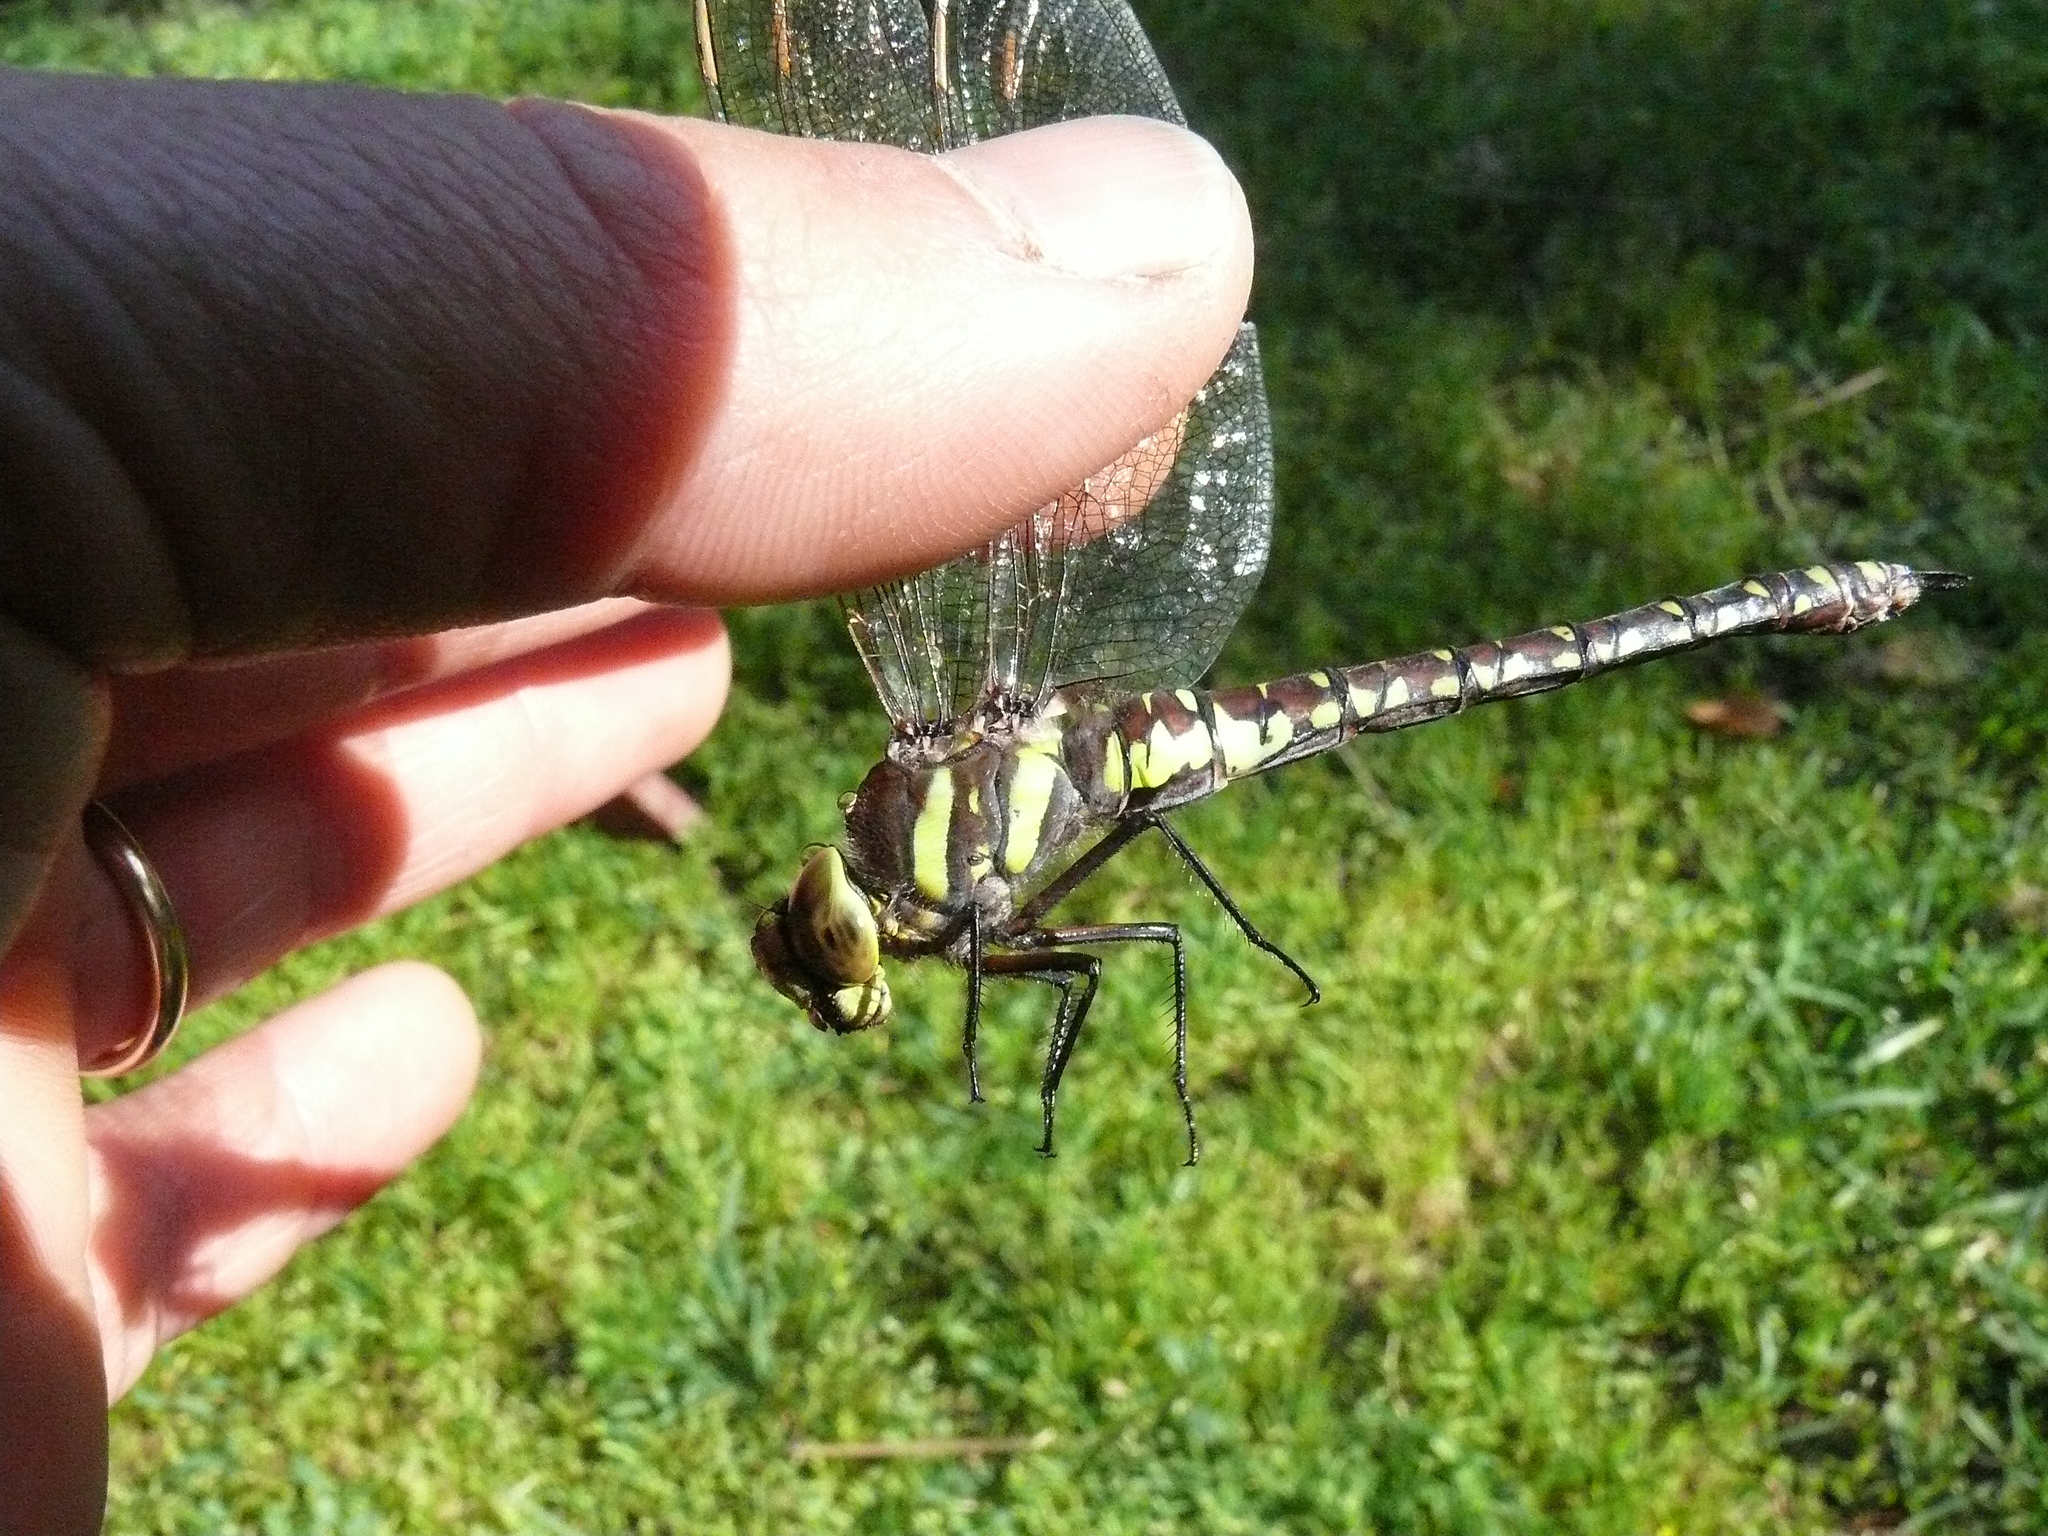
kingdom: Animalia
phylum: Arthropoda
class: Insecta
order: Odonata
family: Aeshnidae
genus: Aeshna
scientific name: Aeshna juncea
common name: Moorland hawker
